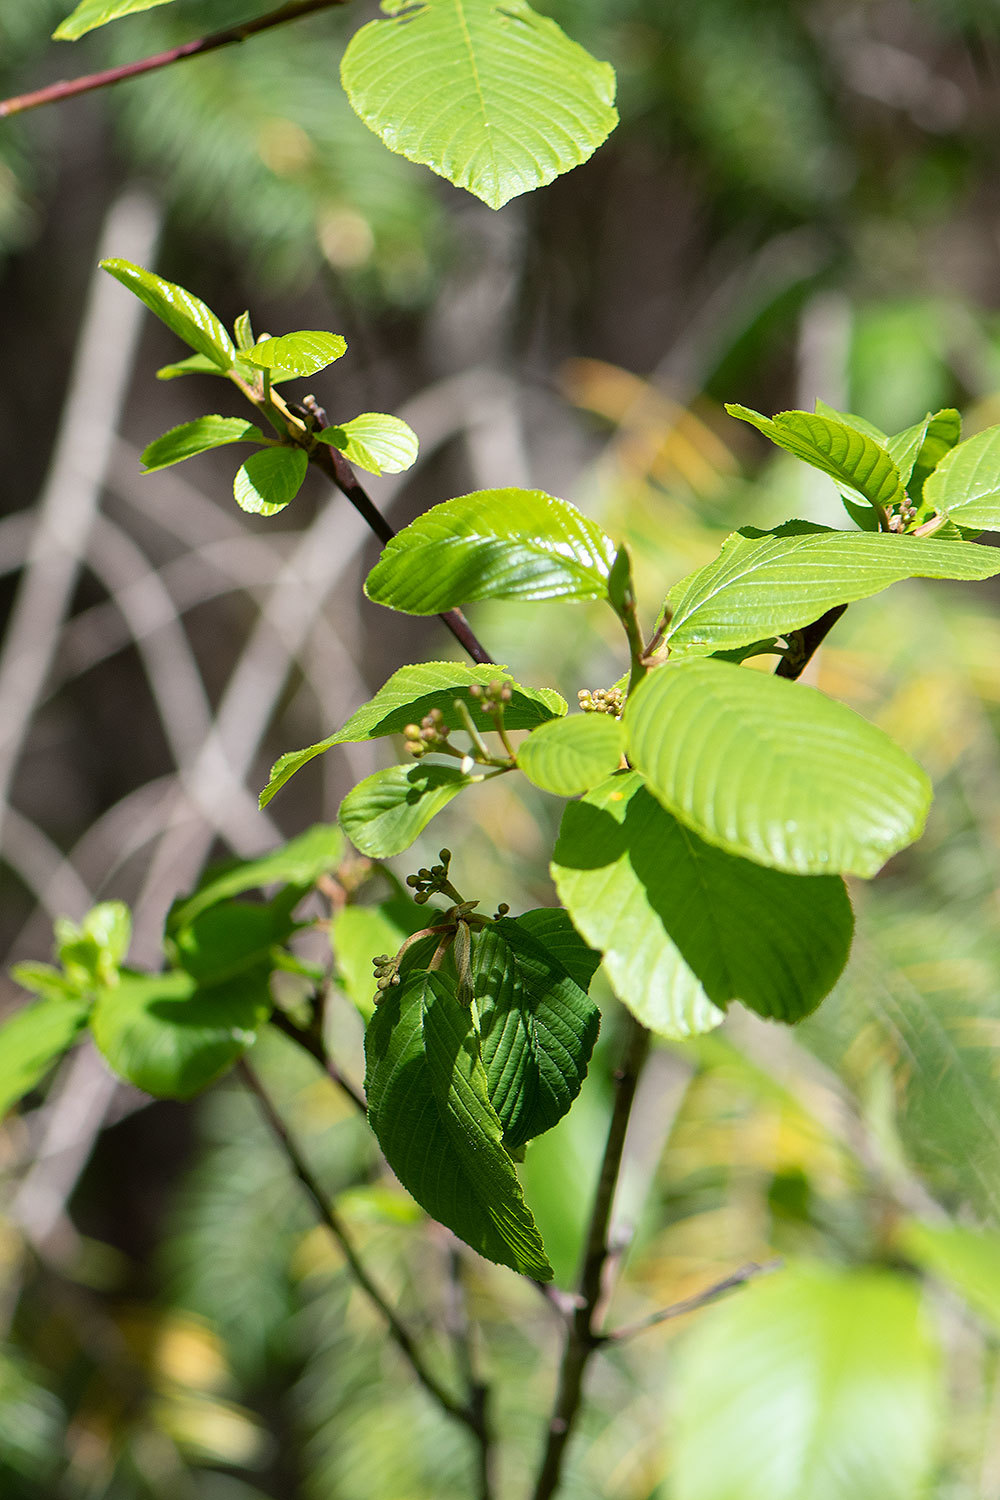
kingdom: Plantae
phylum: Tracheophyta
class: Magnoliopsida
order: Rosales
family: Rhamnaceae
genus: Frangula
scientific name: Frangula purshiana
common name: Cascara buckthorn
